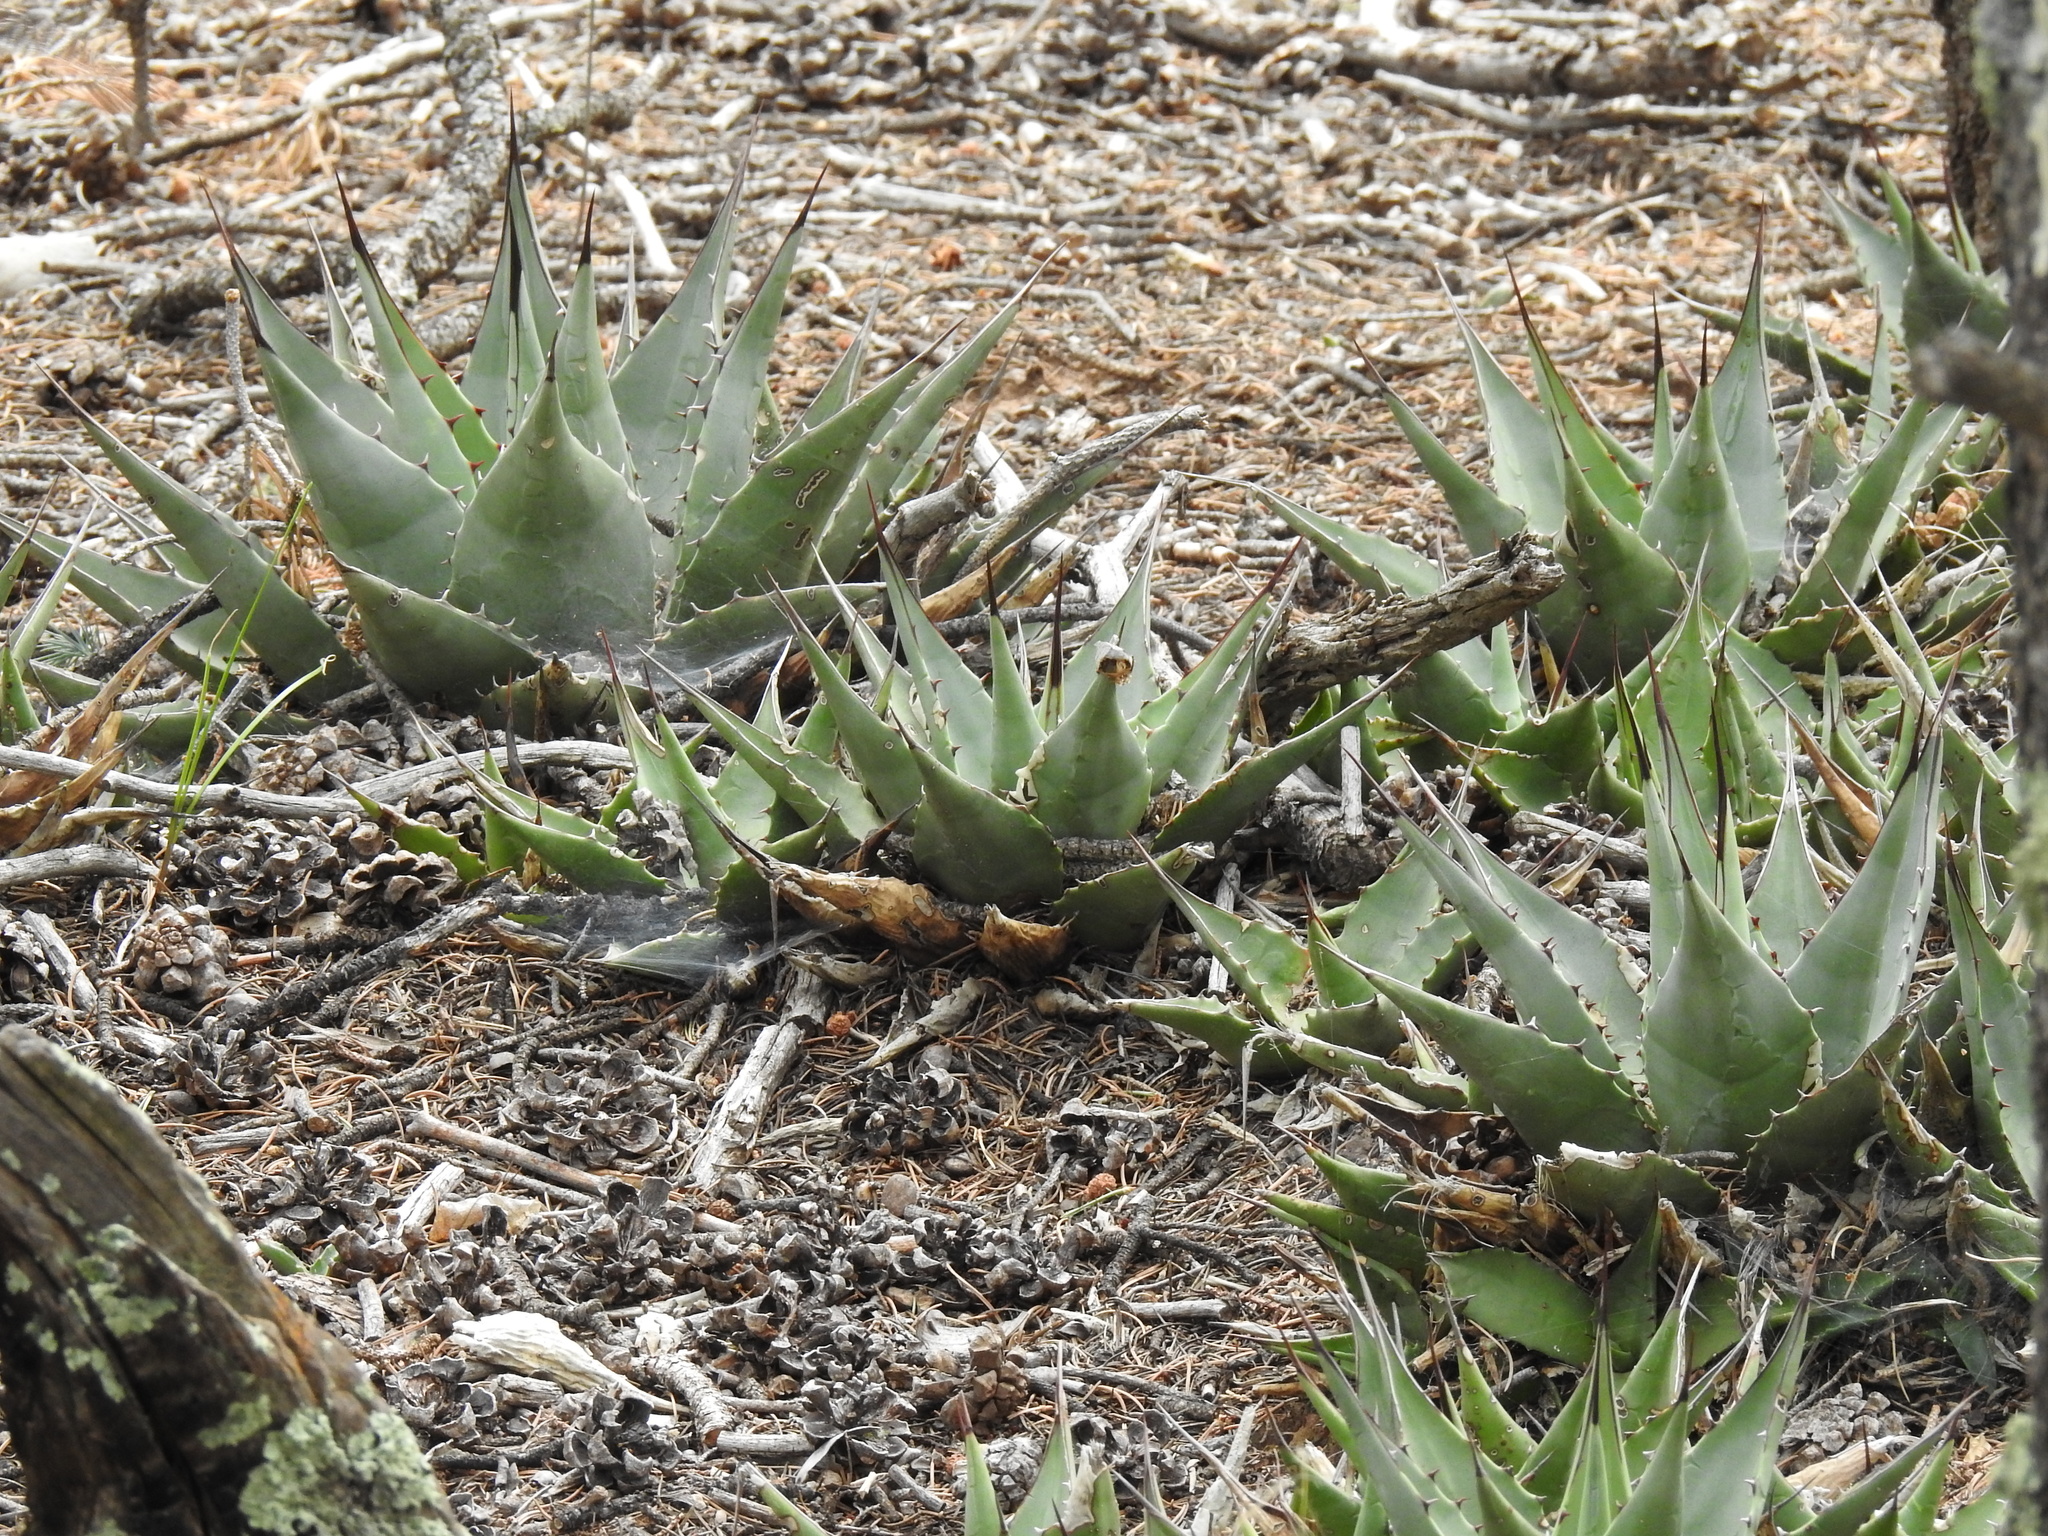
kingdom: Plantae
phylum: Tracheophyta
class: Liliopsida
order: Asparagales
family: Asparagaceae
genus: Agave
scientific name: Agave parryi
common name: Parry's agave
